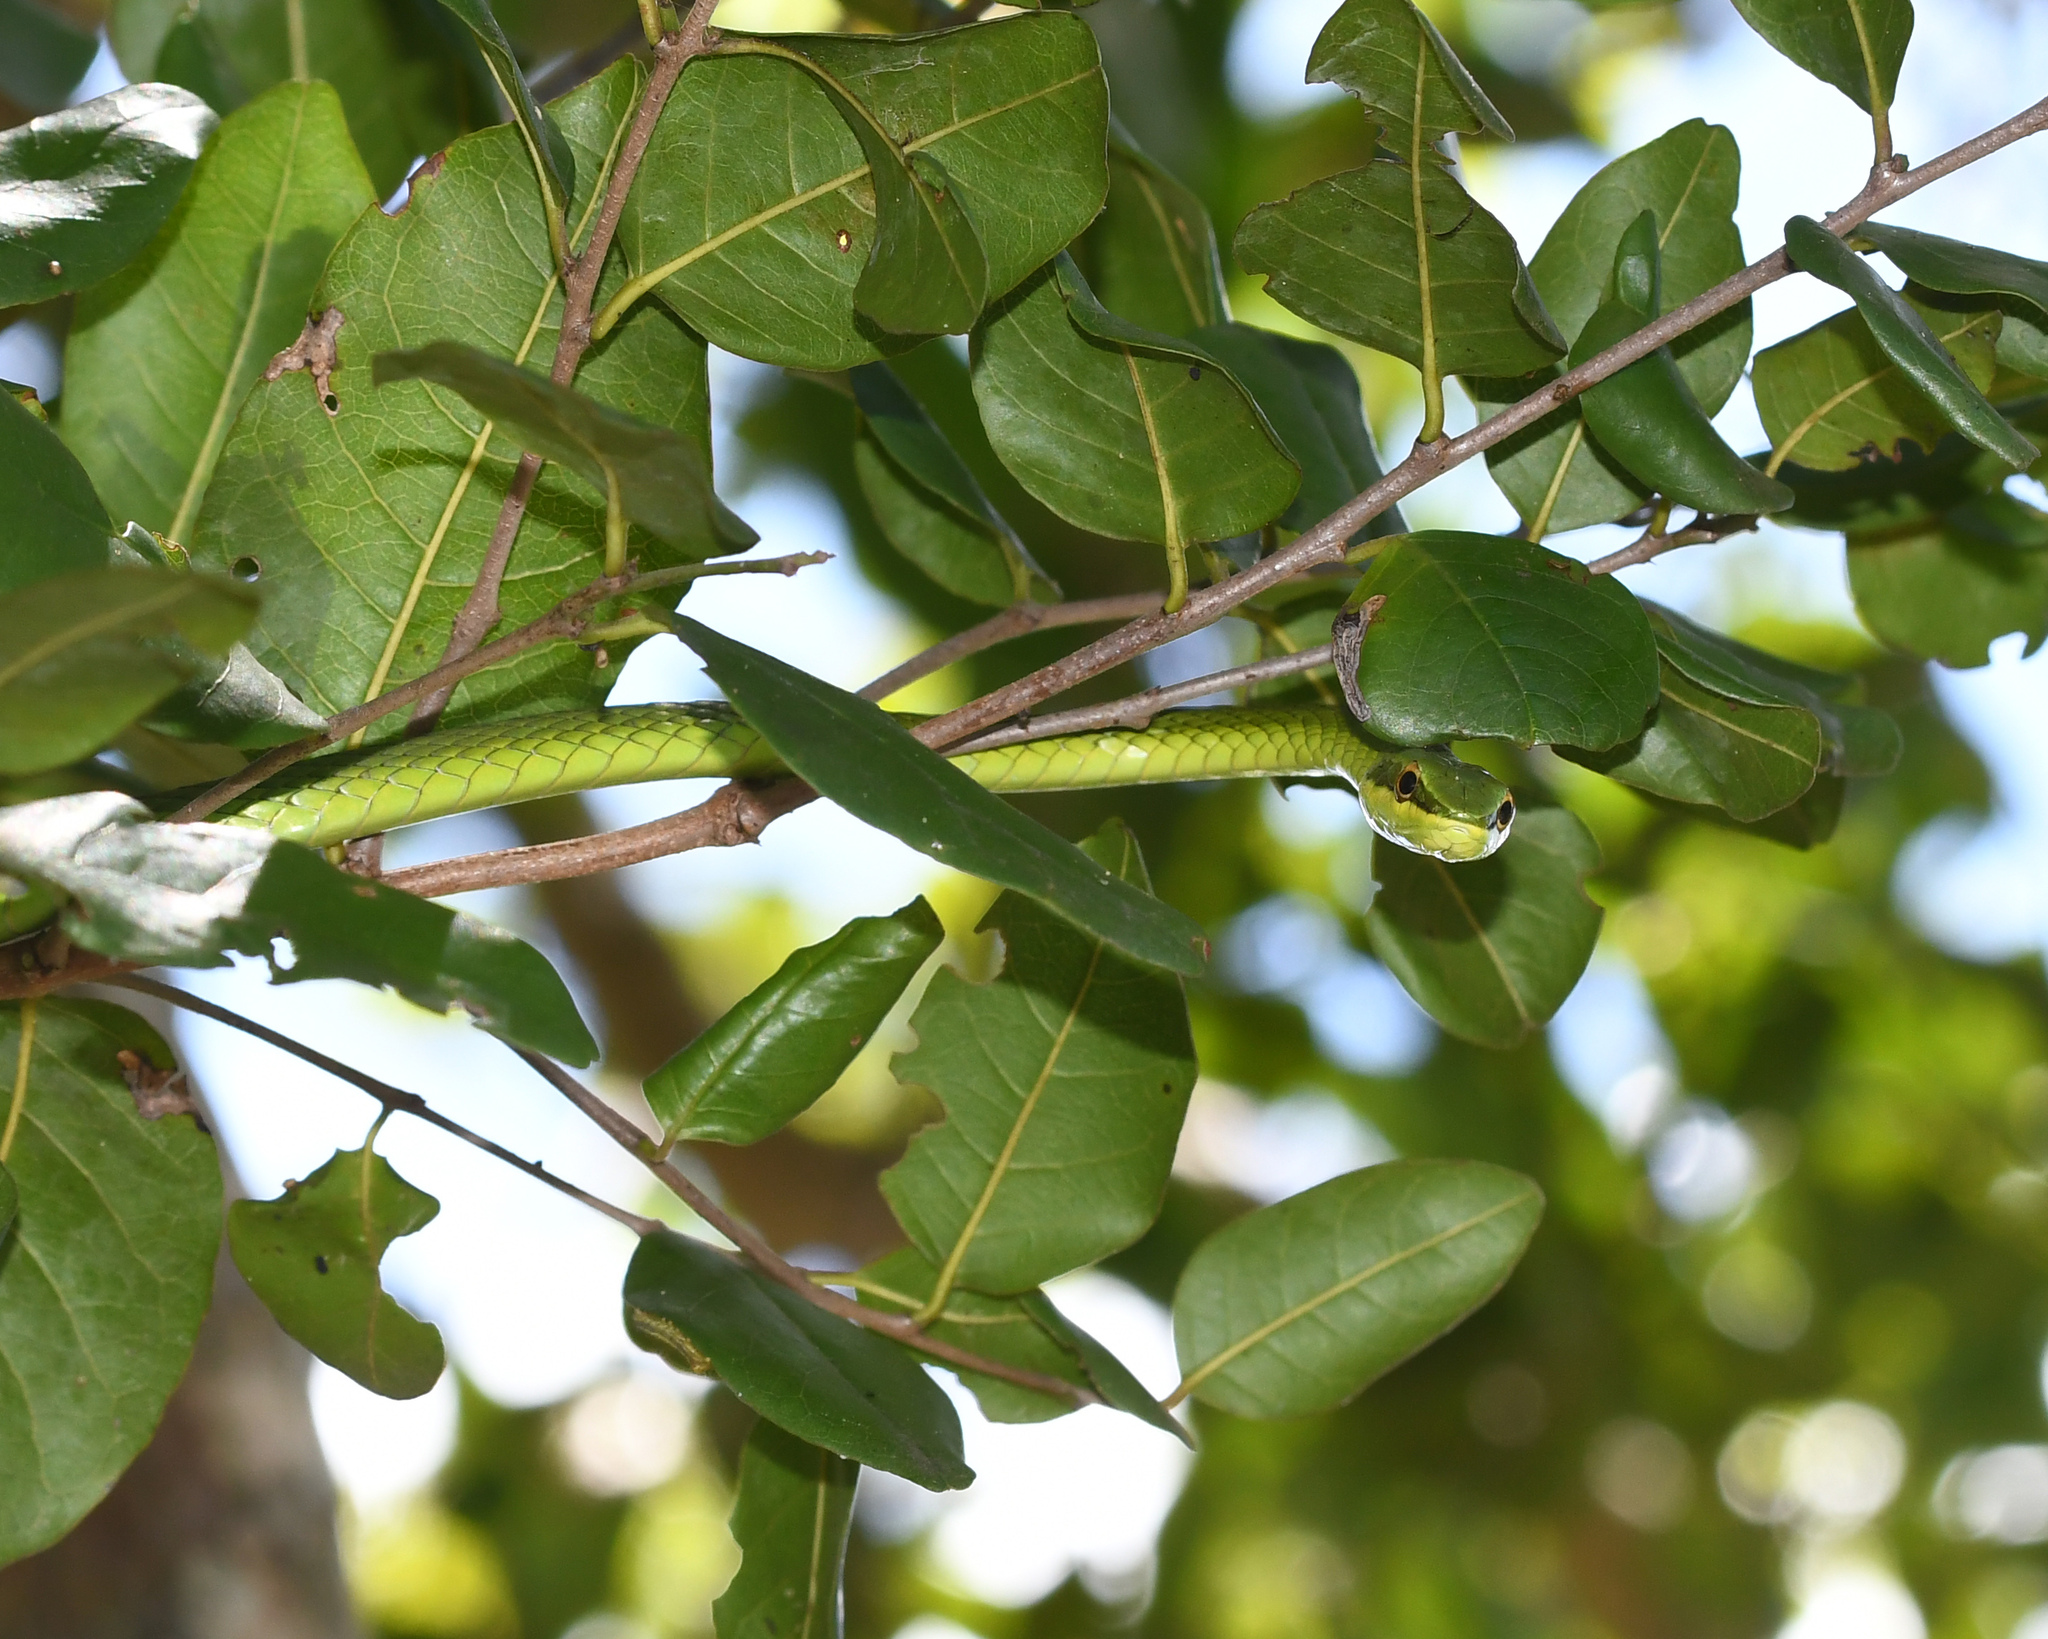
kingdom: Animalia
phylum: Chordata
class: Squamata
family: Colubridae
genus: Uromacer
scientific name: Uromacer catesbyi
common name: Catesby's pointed snake
